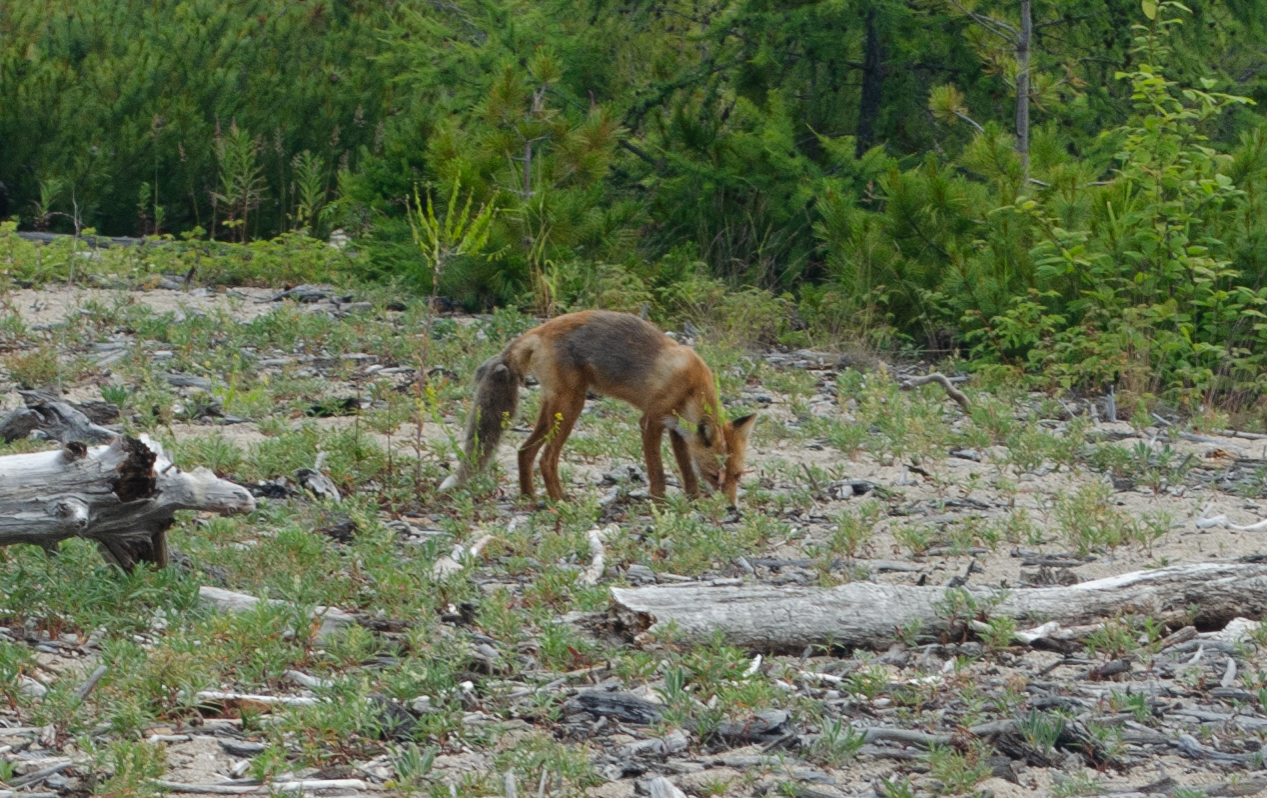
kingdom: Animalia
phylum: Chordata
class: Mammalia
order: Carnivora
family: Canidae
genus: Vulpes
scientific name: Vulpes vulpes
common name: Red fox
